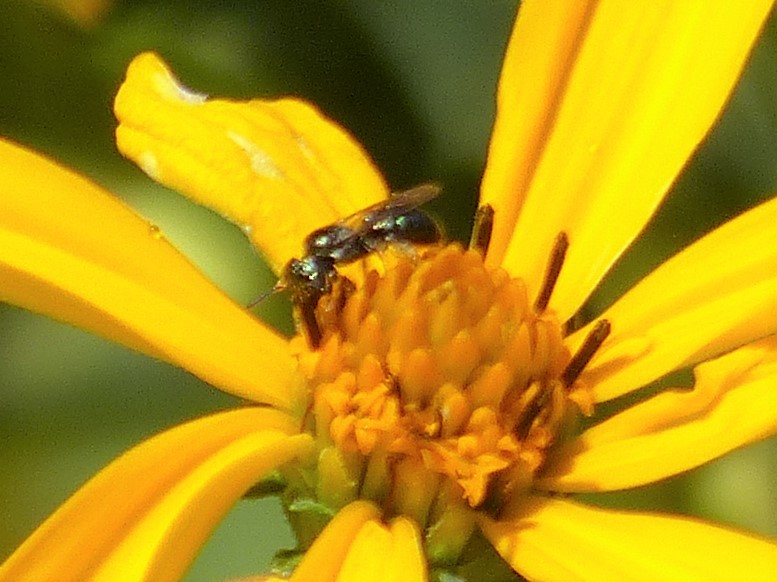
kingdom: Animalia
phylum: Arthropoda
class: Insecta
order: Hymenoptera
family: Apidae
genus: Zadontomerus
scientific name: Zadontomerus
